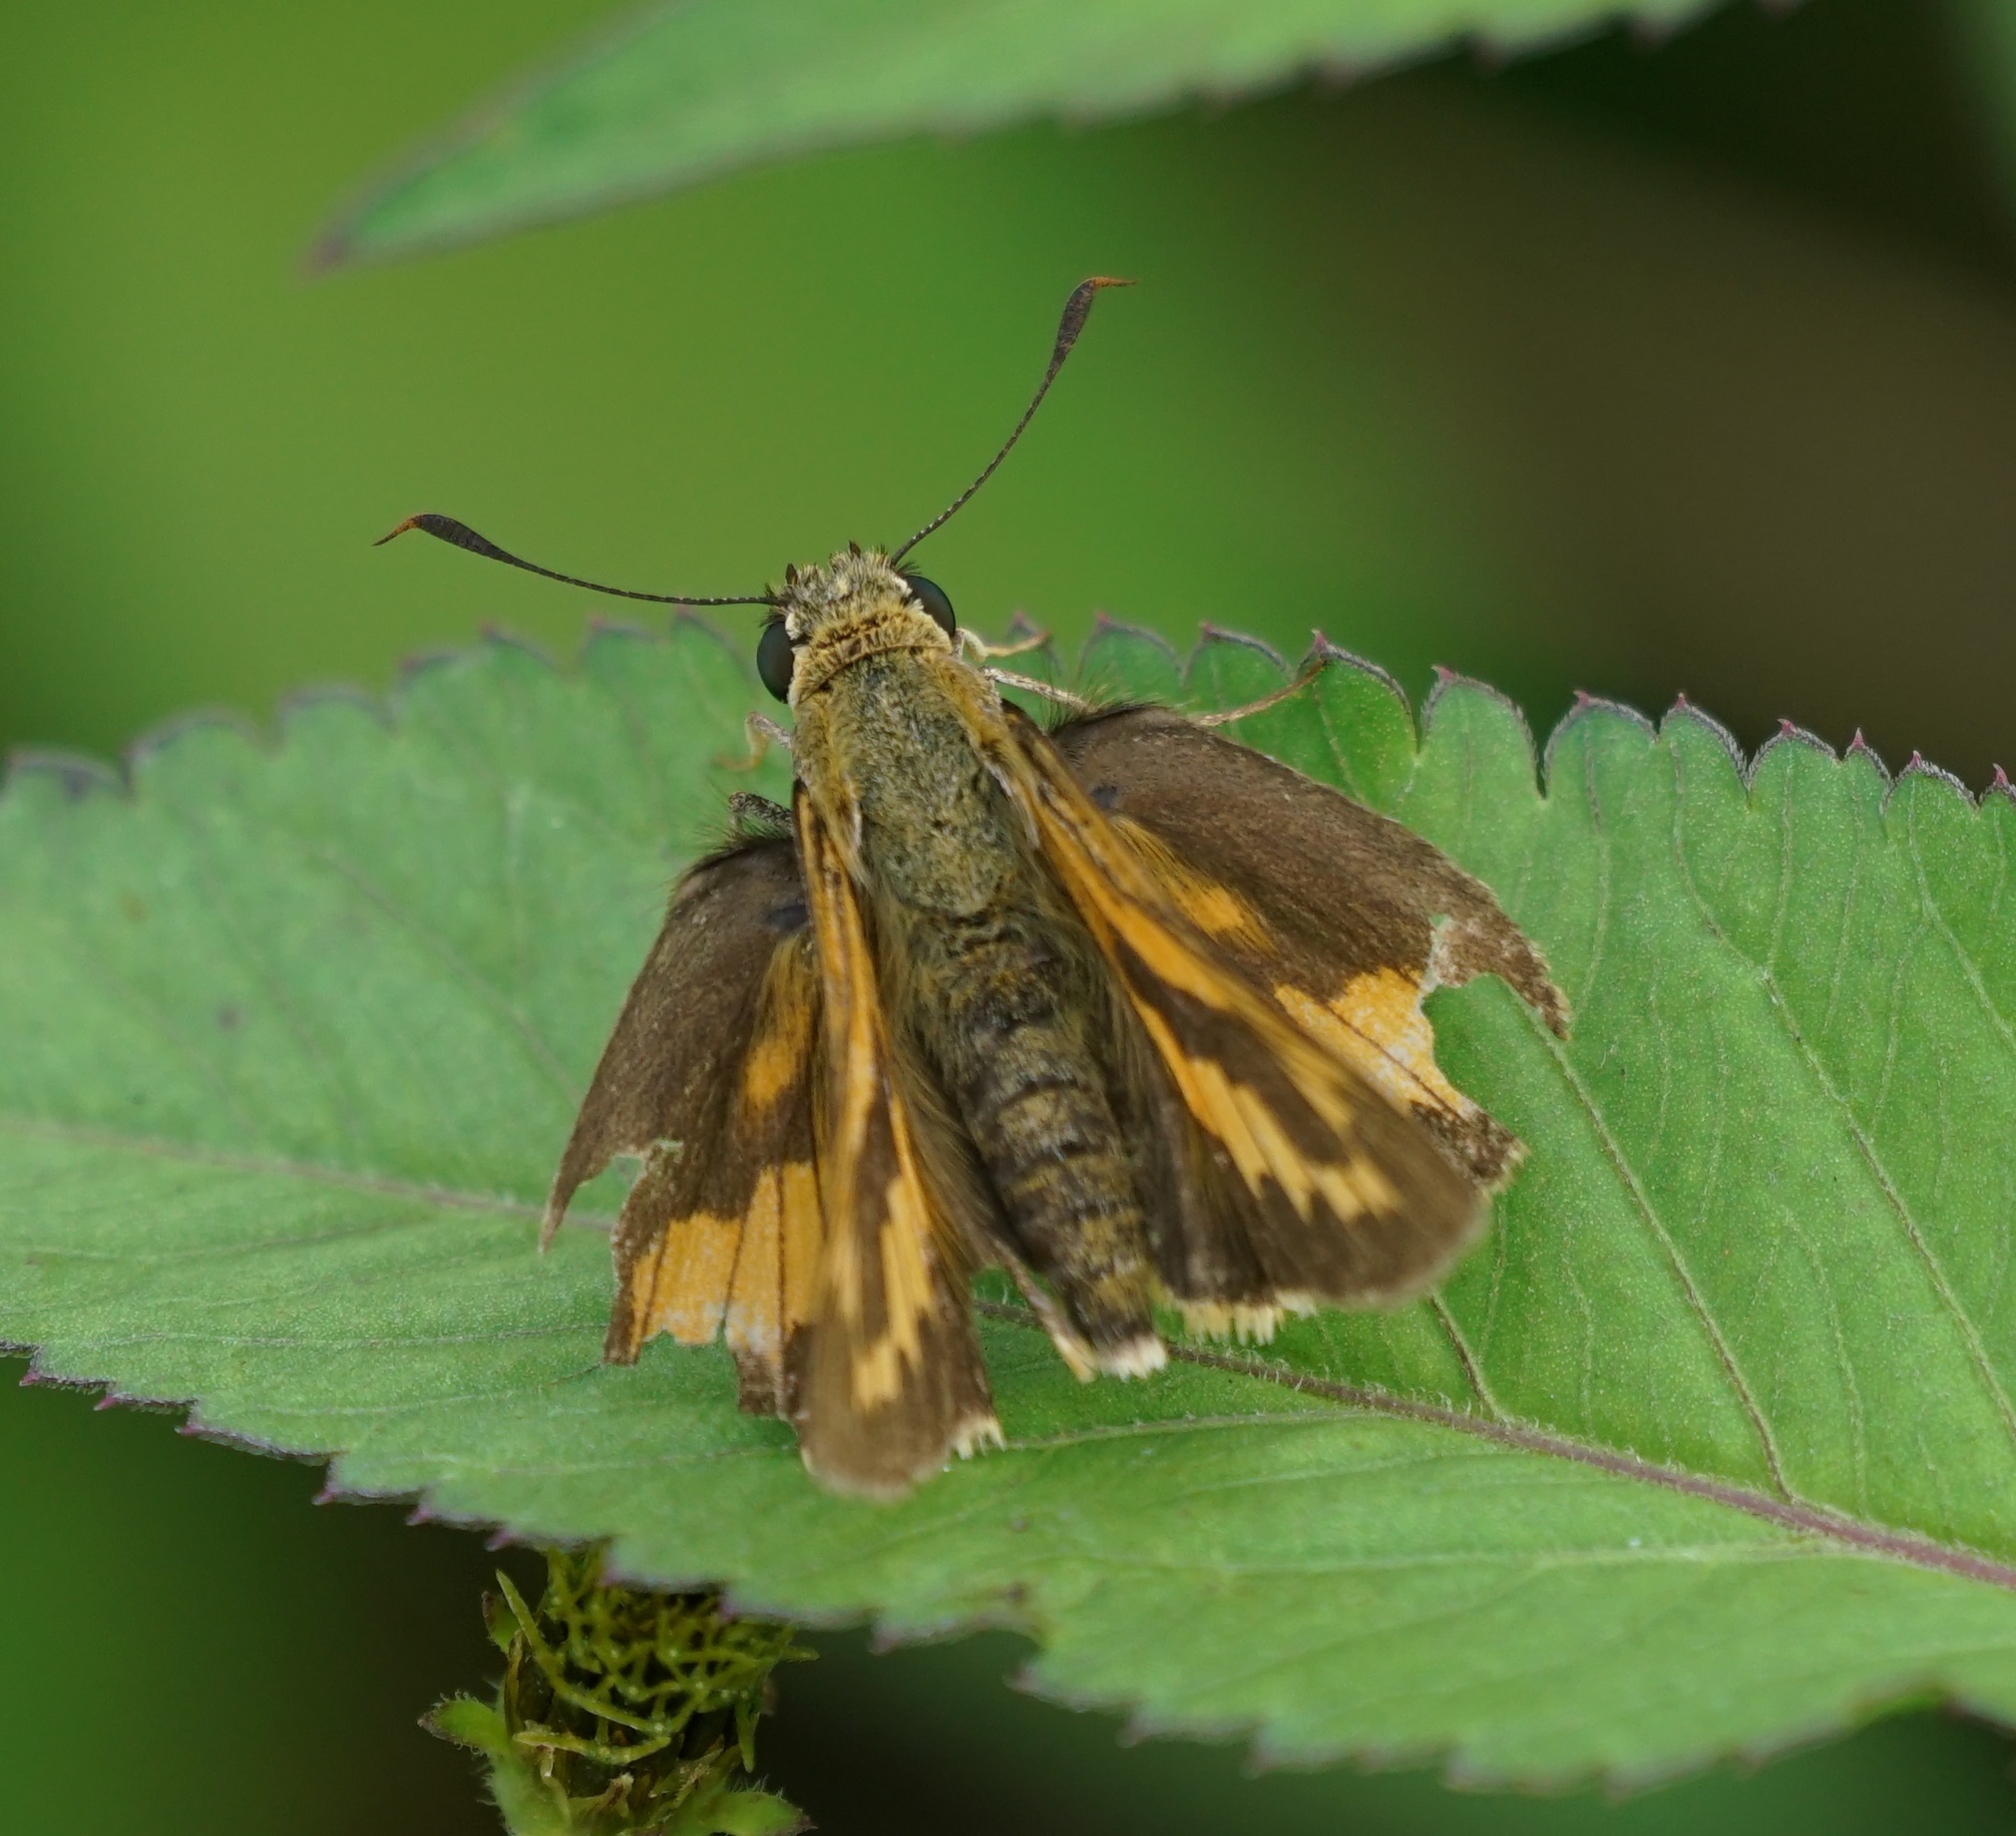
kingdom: Animalia
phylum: Arthropoda
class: Insecta
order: Lepidoptera
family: Hesperiidae
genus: Telicota
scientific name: Telicota colon
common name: Pale palm dart
